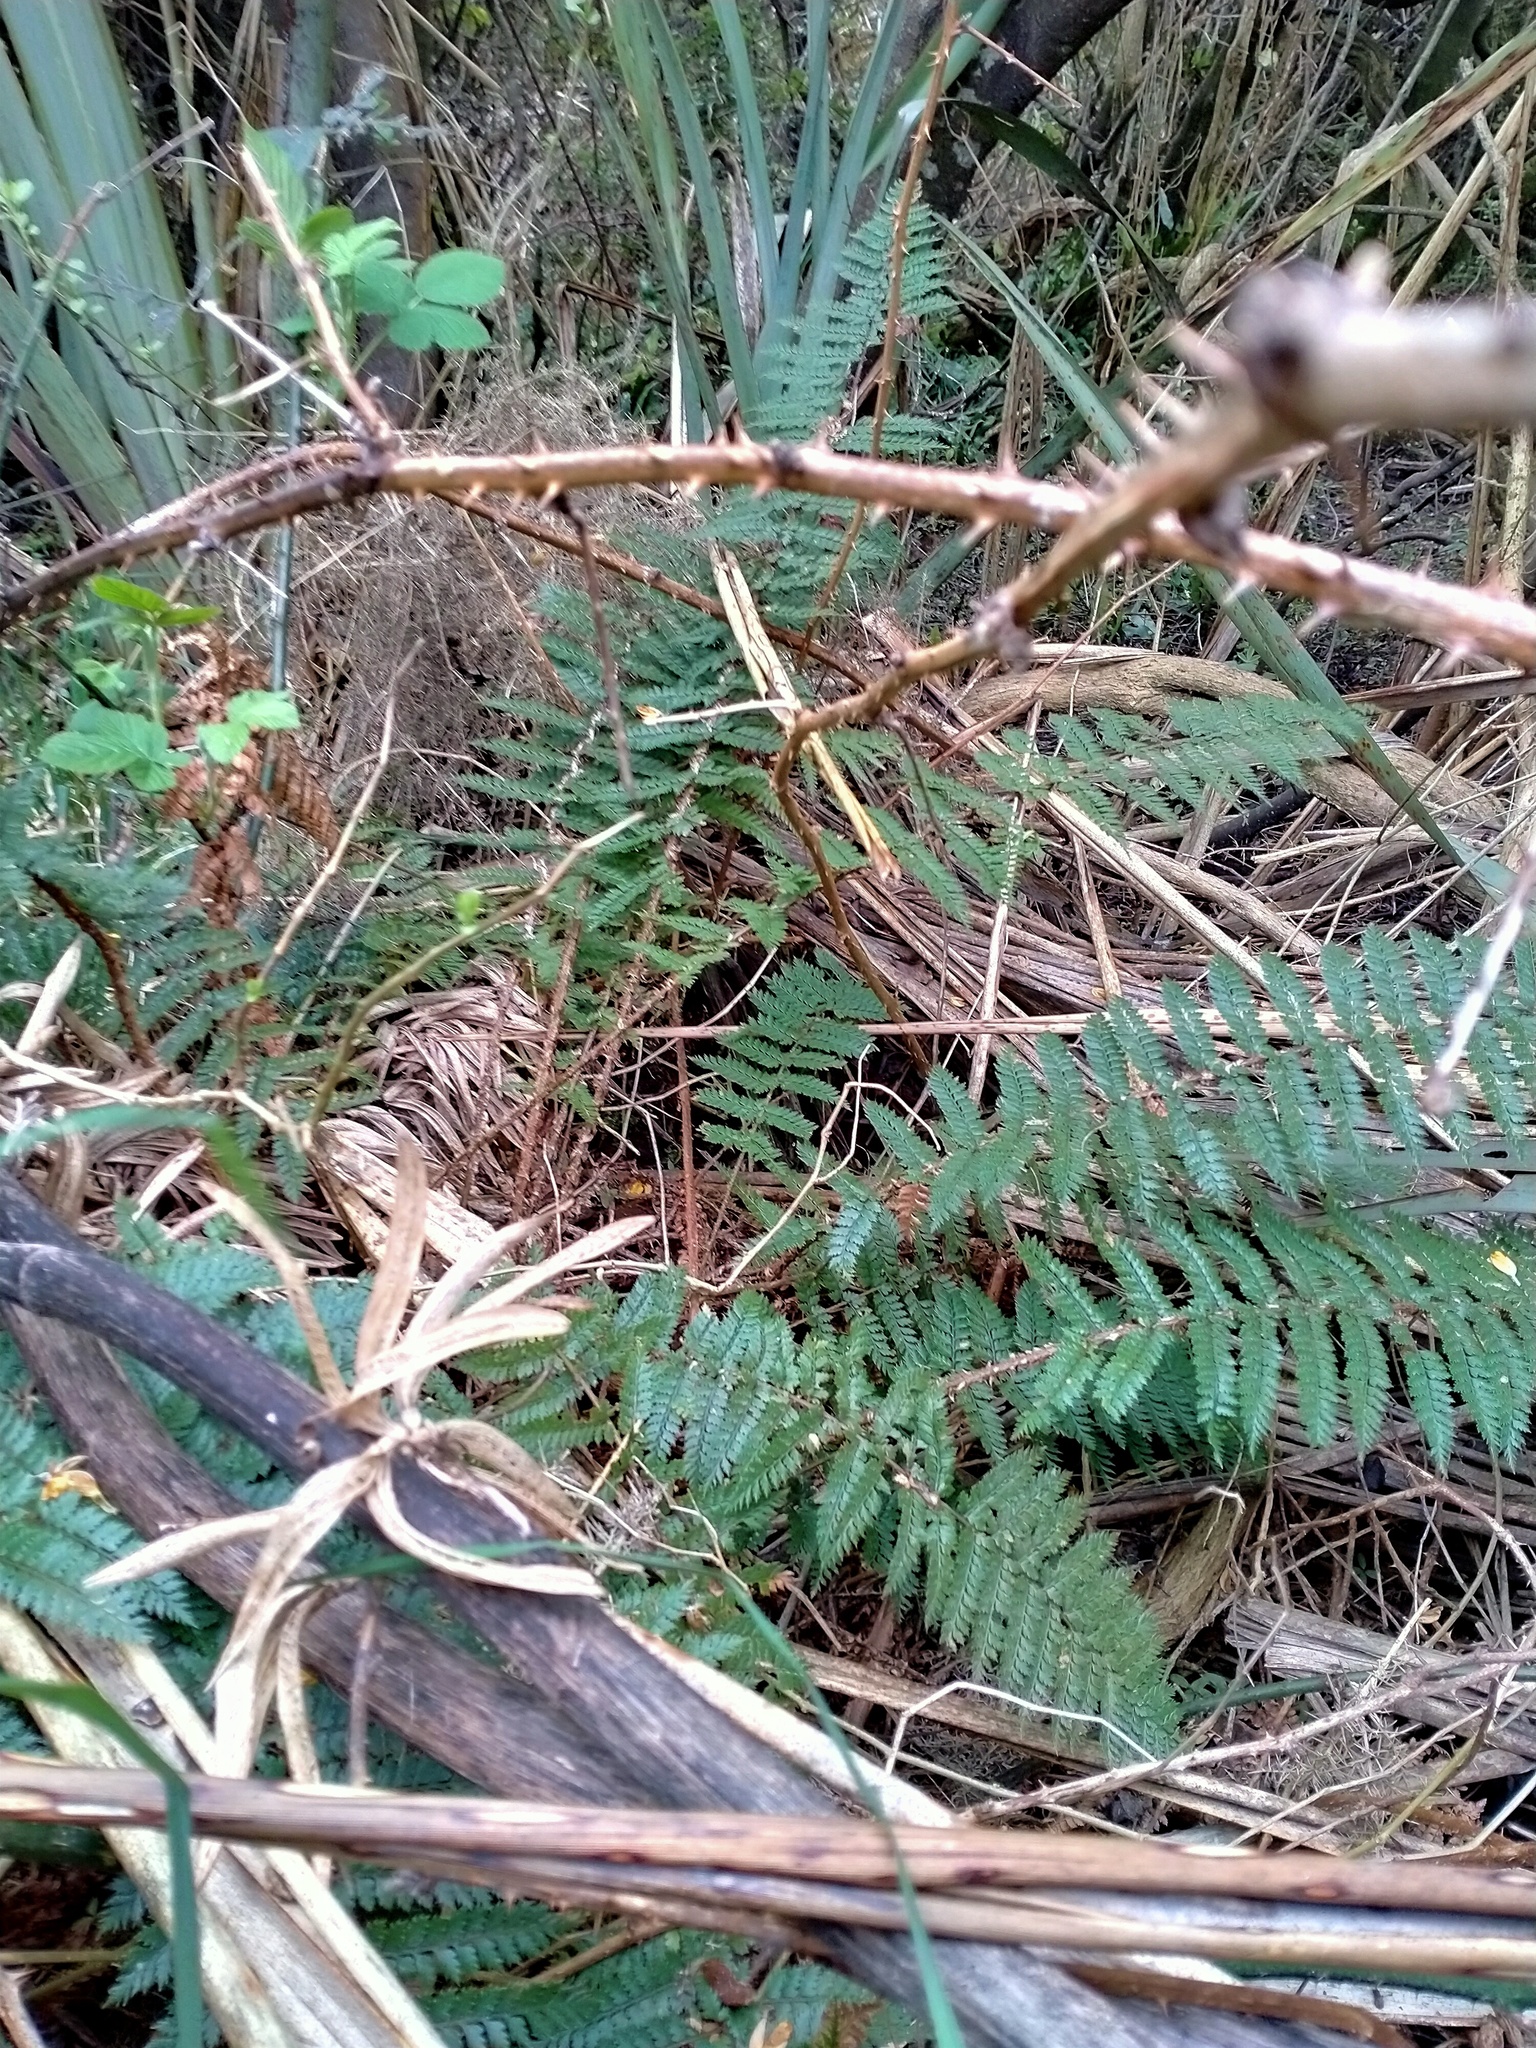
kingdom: Plantae
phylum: Tracheophyta
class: Polypodiopsida
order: Polypodiales
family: Dryopteridaceae
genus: Polystichum
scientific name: Polystichum vestitum
